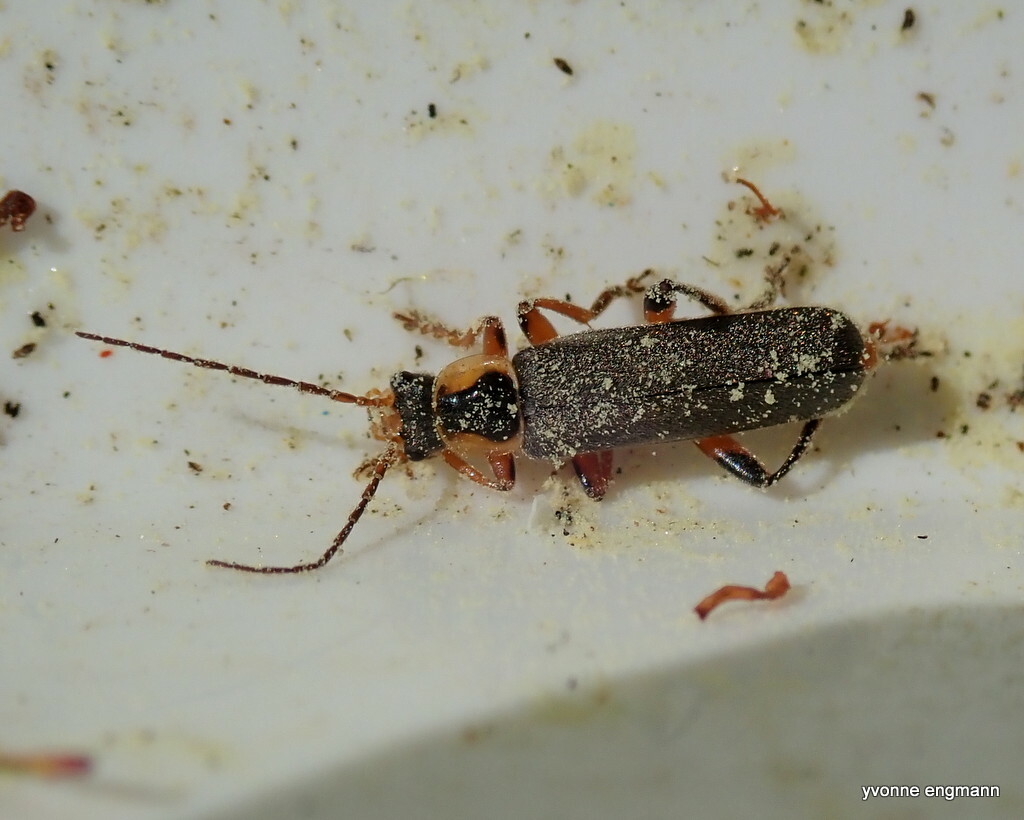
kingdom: Animalia
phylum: Arthropoda
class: Insecta
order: Coleoptera
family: Cantharidae
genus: Cantharis
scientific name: Cantharis nigricans
